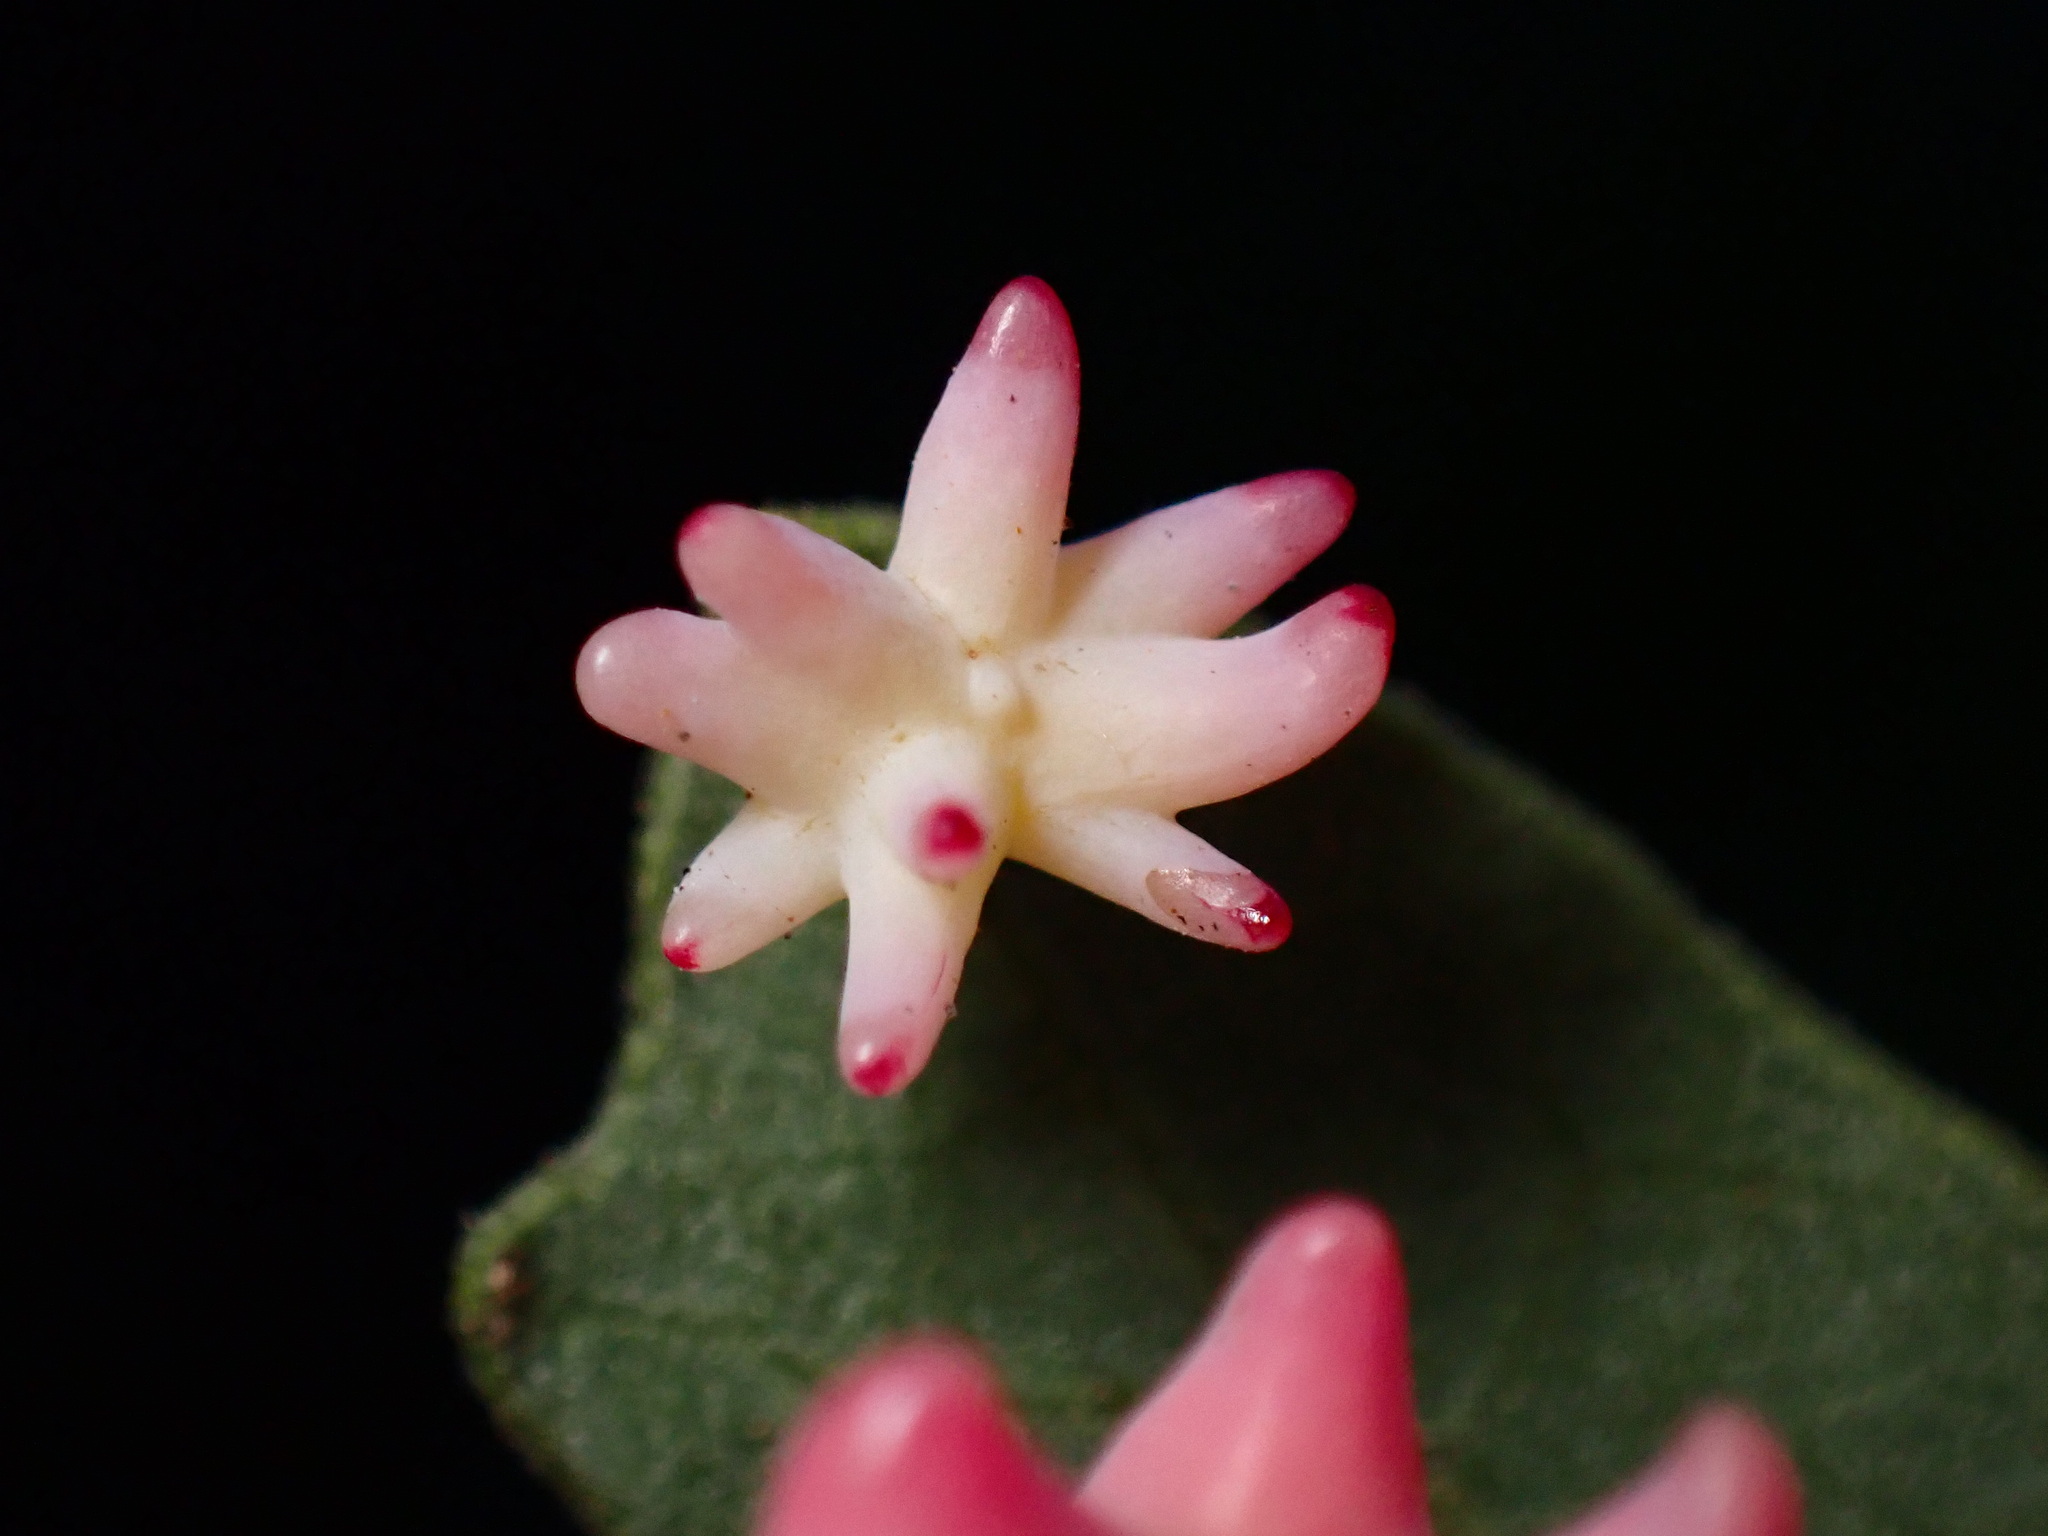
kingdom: Animalia
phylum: Arthropoda
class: Insecta
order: Hymenoptera
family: Cynipidae
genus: Cynips
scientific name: Cynips douglasi
